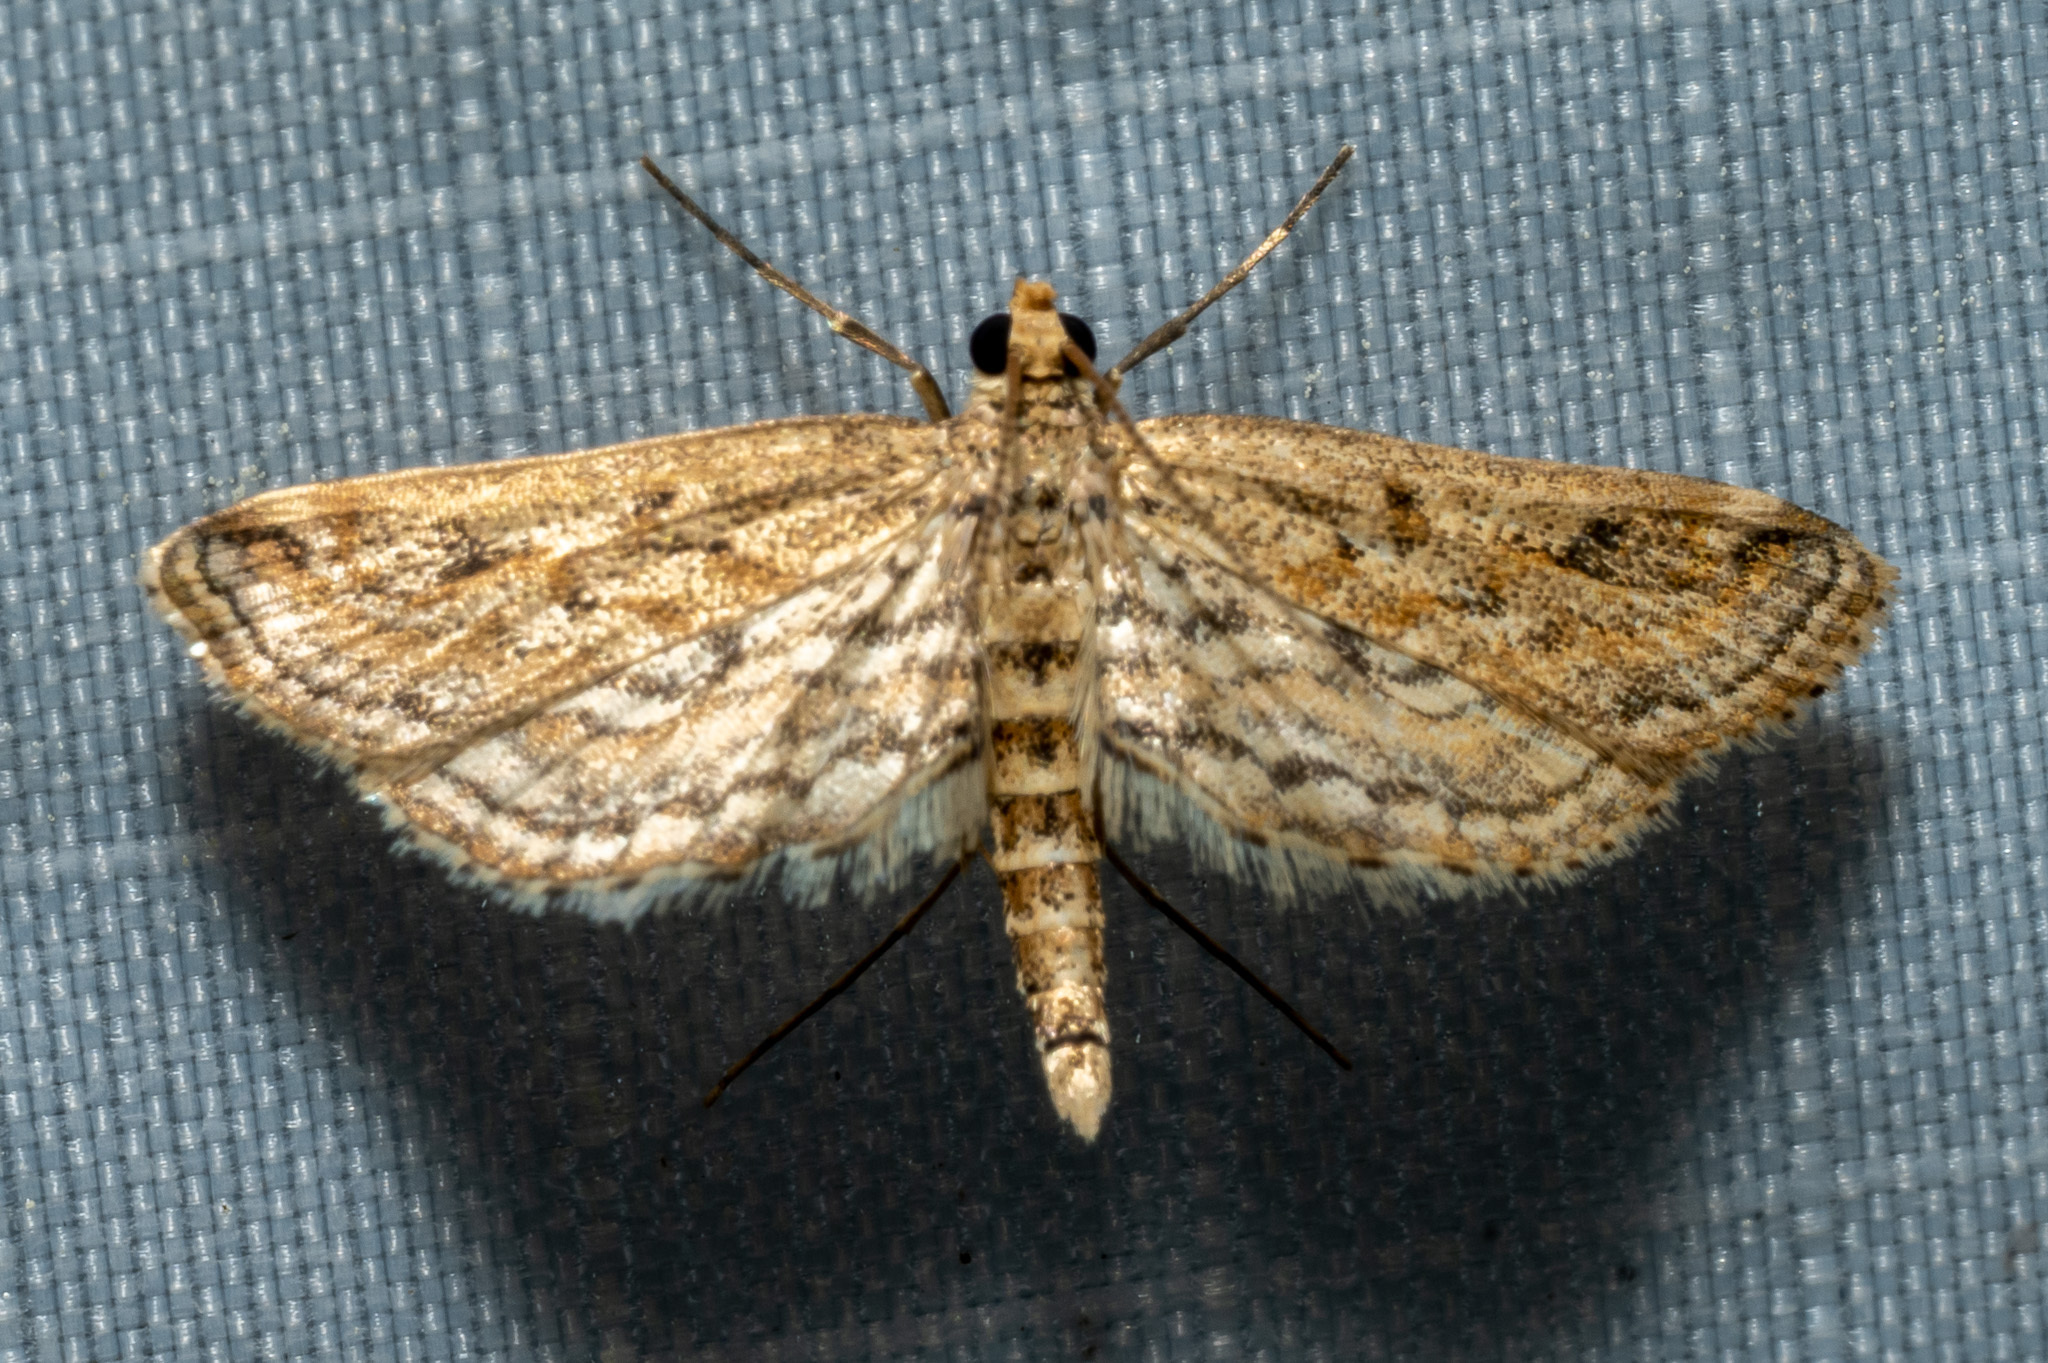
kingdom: Animalia
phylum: Arthropoda
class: Insecta
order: Lepidoptera
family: Crambidae
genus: Parapoynx
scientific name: Parapoynx allionealis
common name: Bladderwort casemaker
